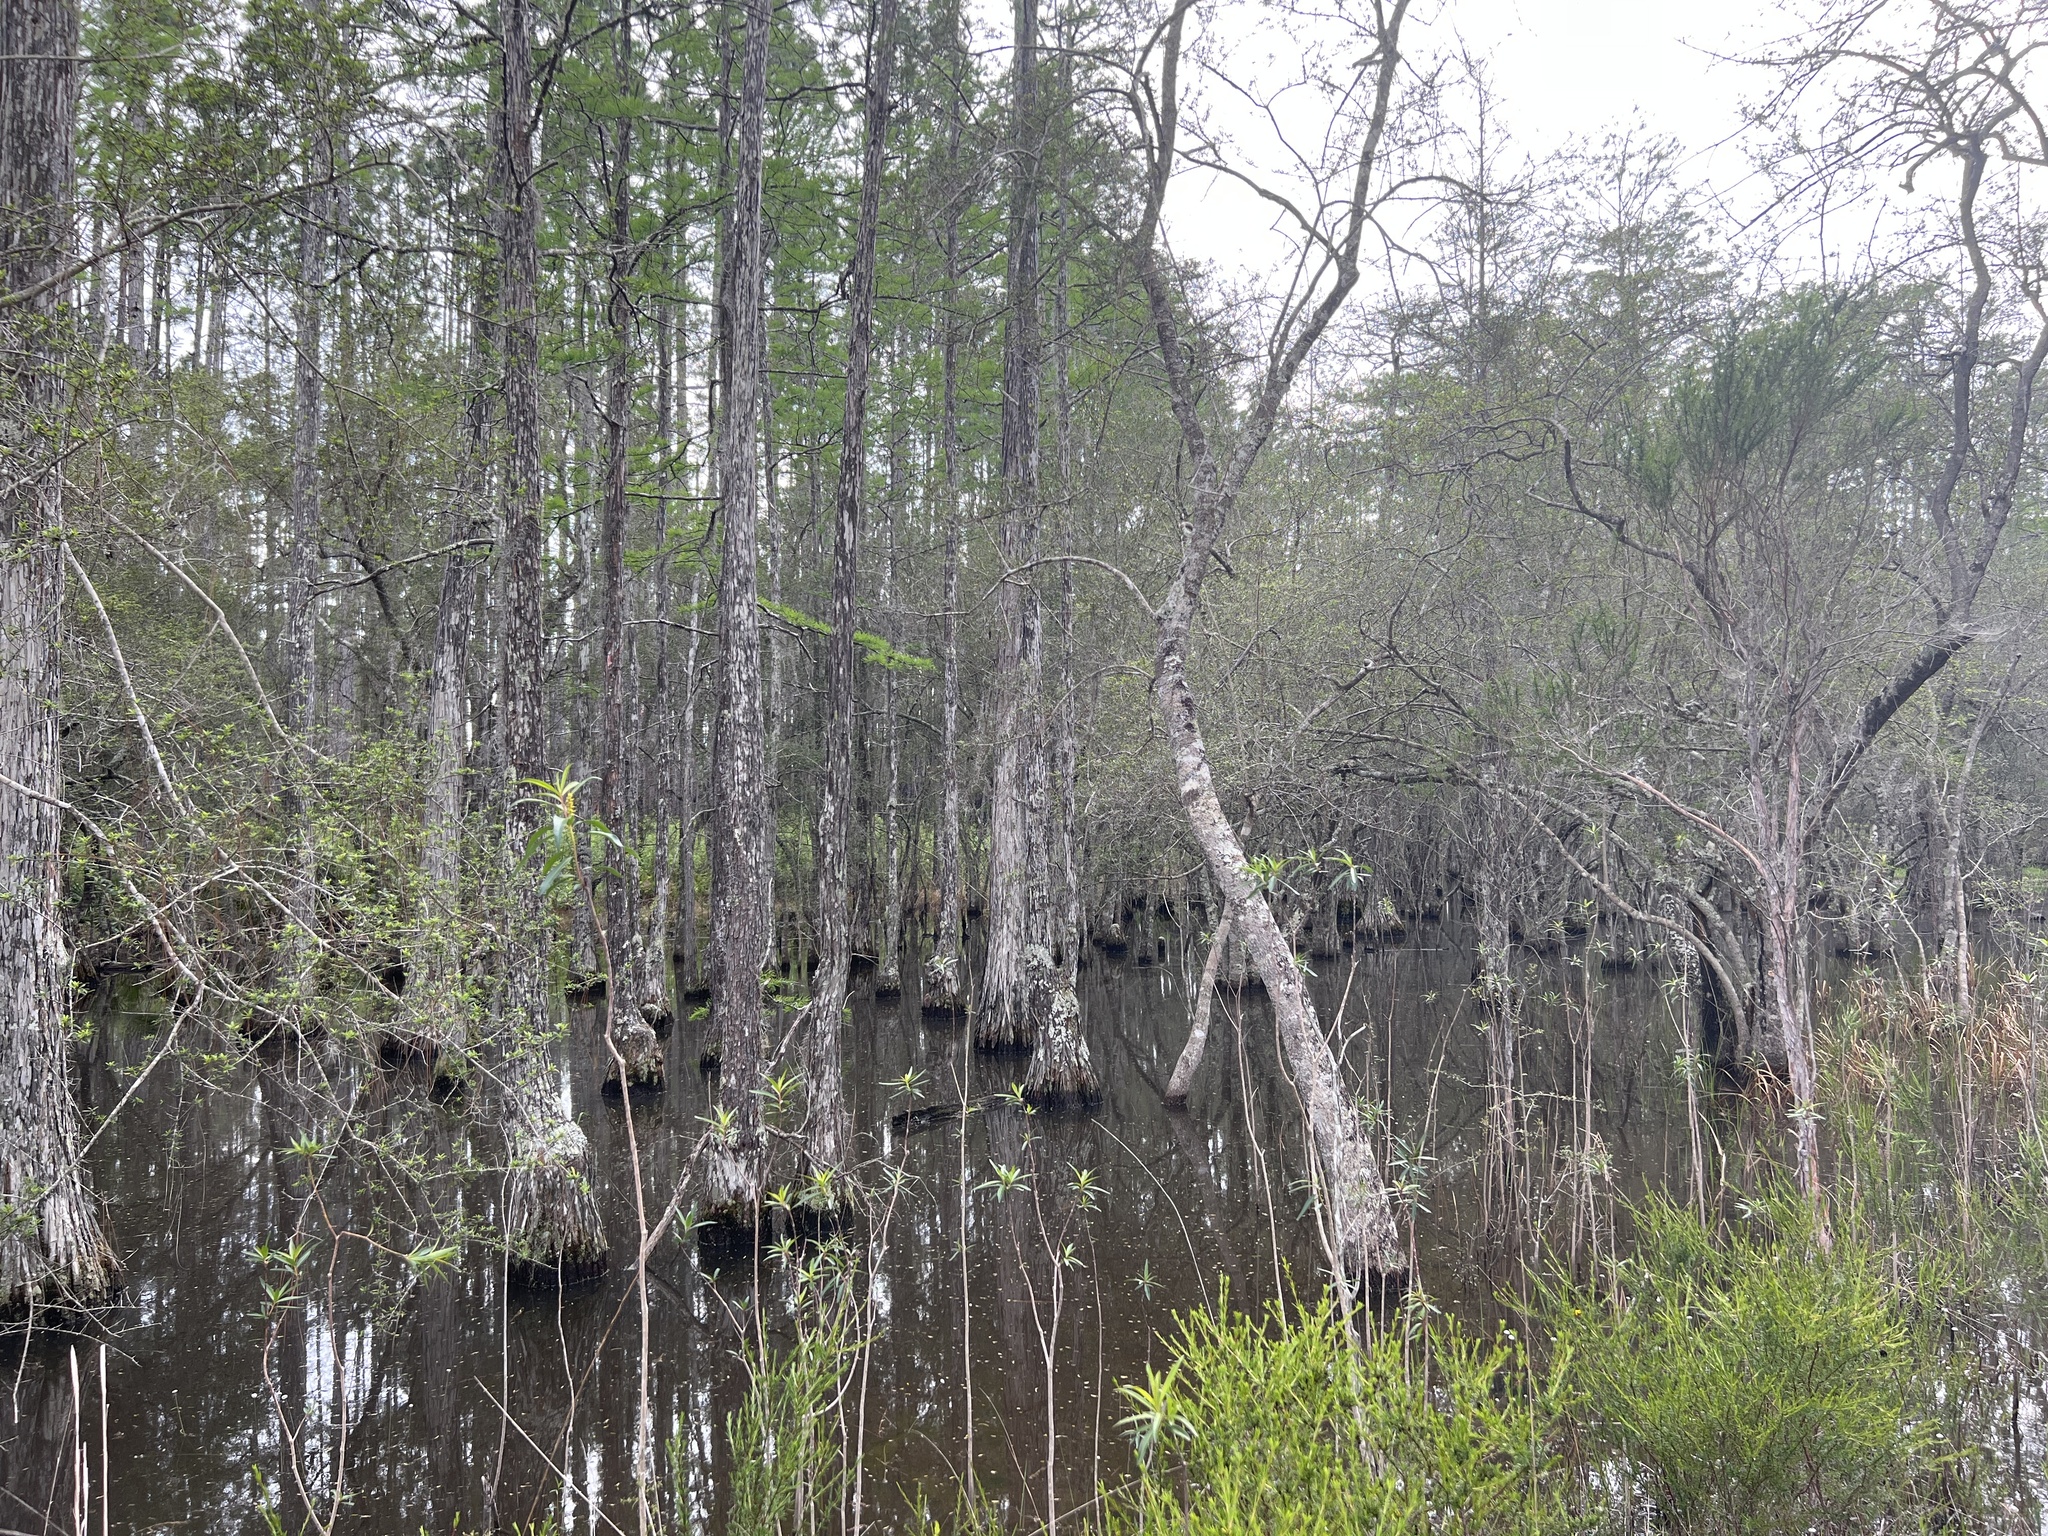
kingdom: Plantae
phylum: Tracheophyta
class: Magnoliopsida
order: Aquifoliales
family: Aquifoliaceae
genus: Ilex
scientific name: Ilex myrtifolia
